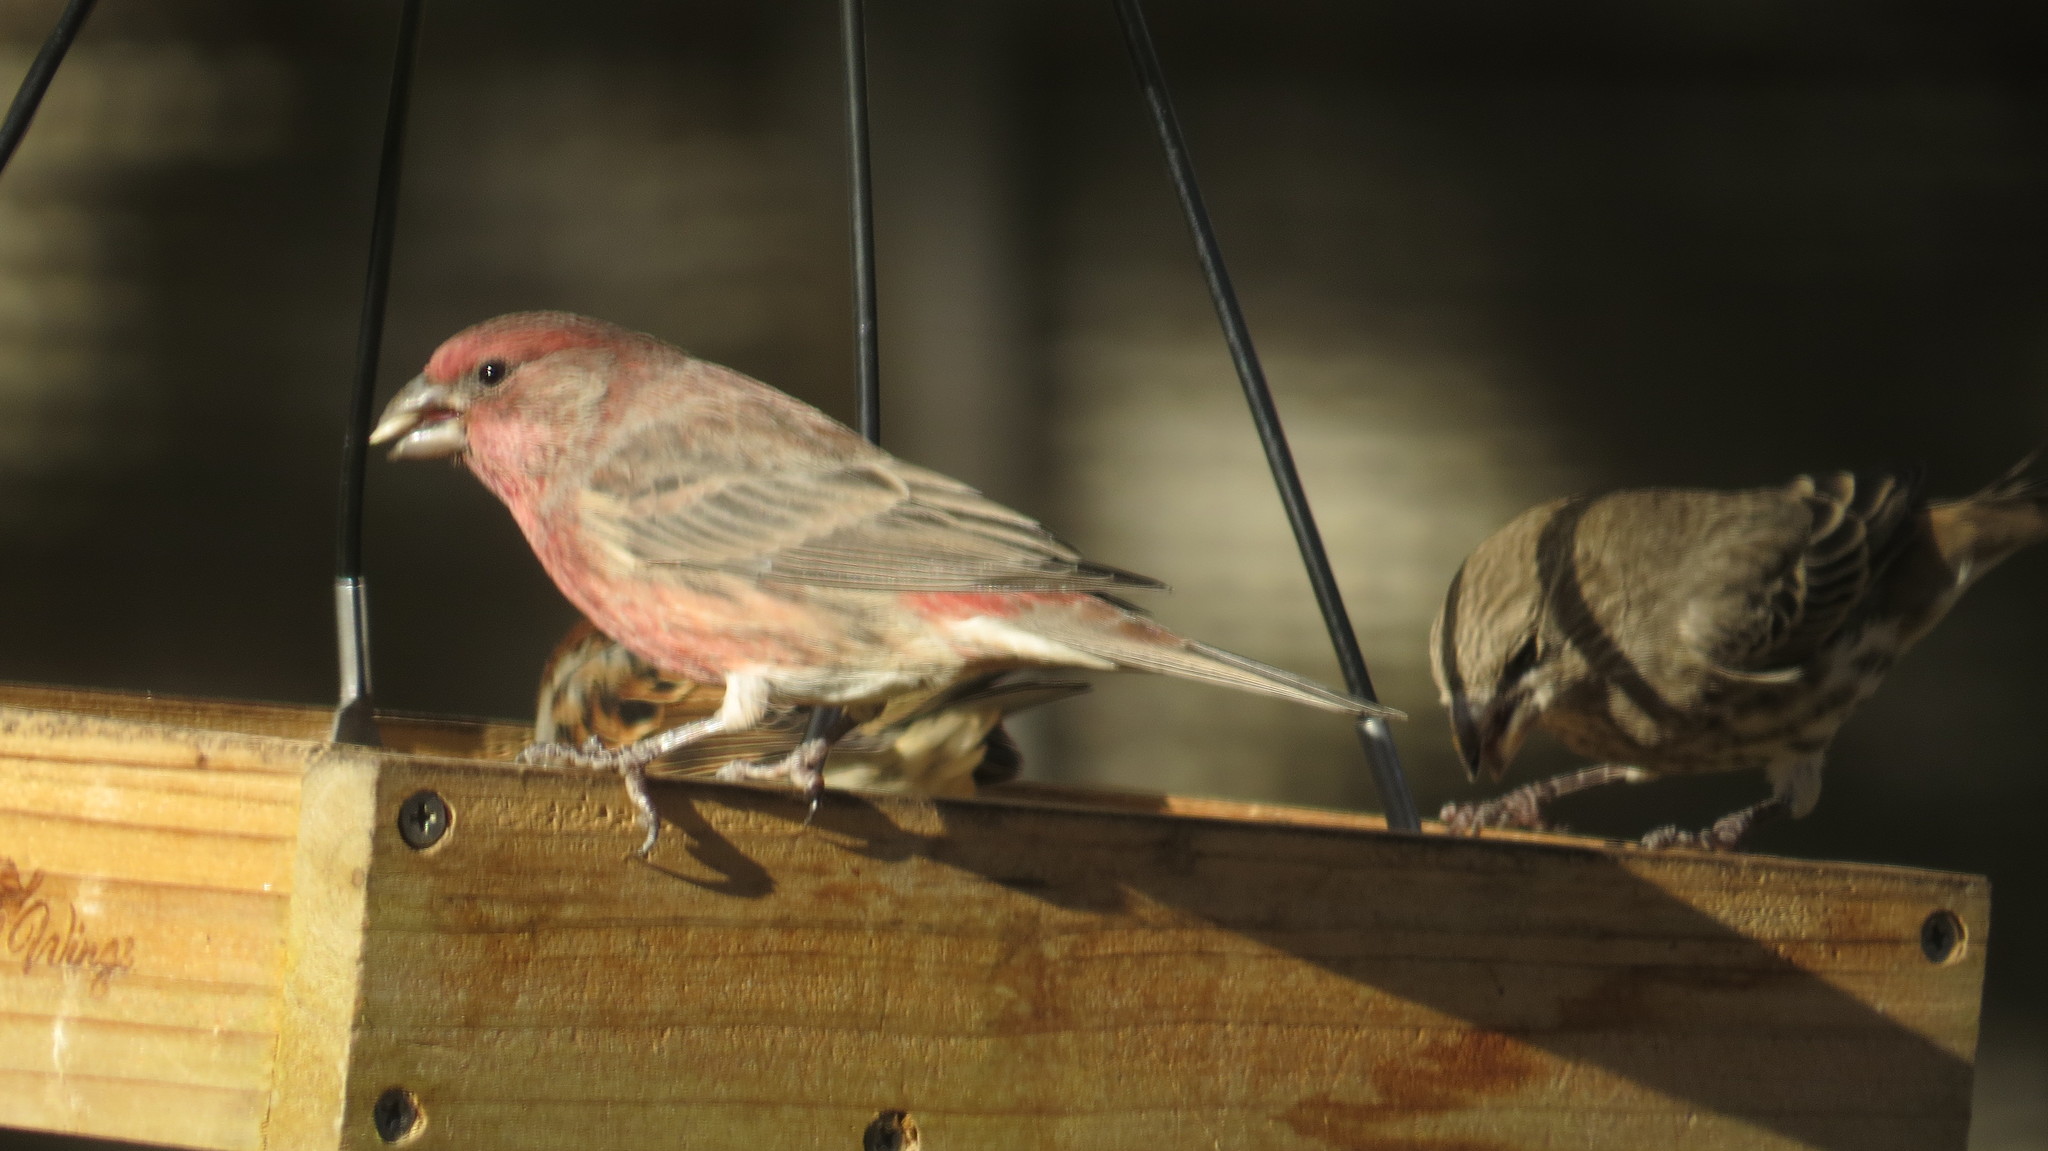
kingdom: Animalia
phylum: Chordata
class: Aves
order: Passeriformes
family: Fringillidae
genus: Haemorhous
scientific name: Haemorhous mexicanus
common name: House finch
